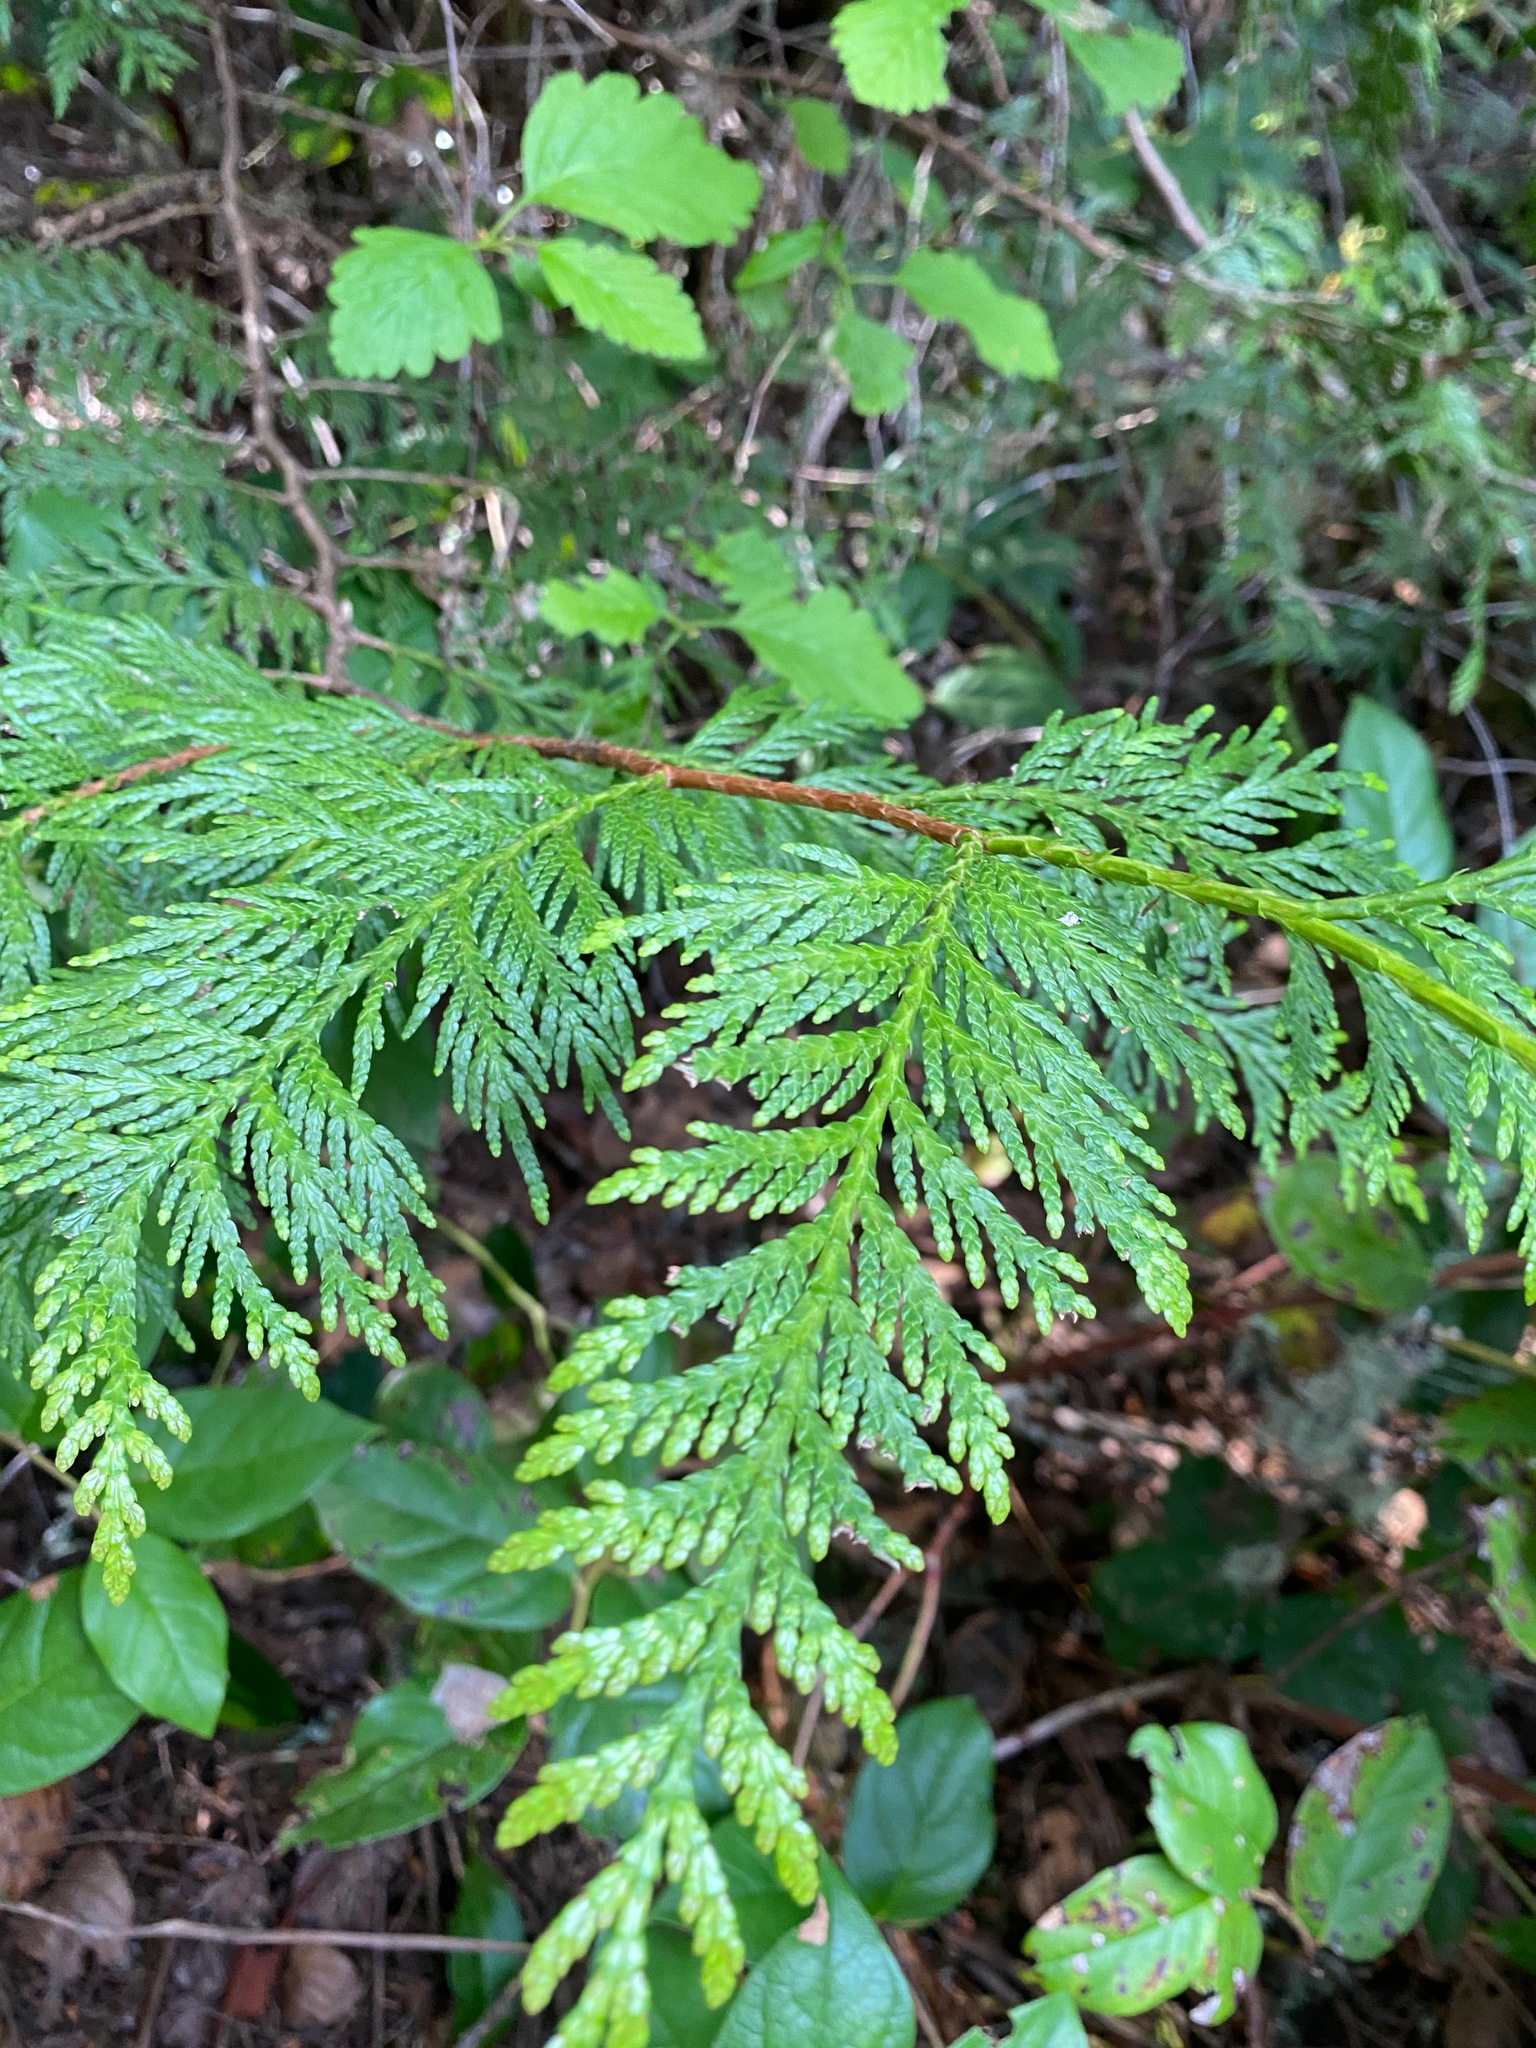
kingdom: Plantae
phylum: Tracheophyta
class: Pinopsida
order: Pinales
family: Cupressaceae
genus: Thuja
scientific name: Thuja plicata
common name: Western red-cedar
